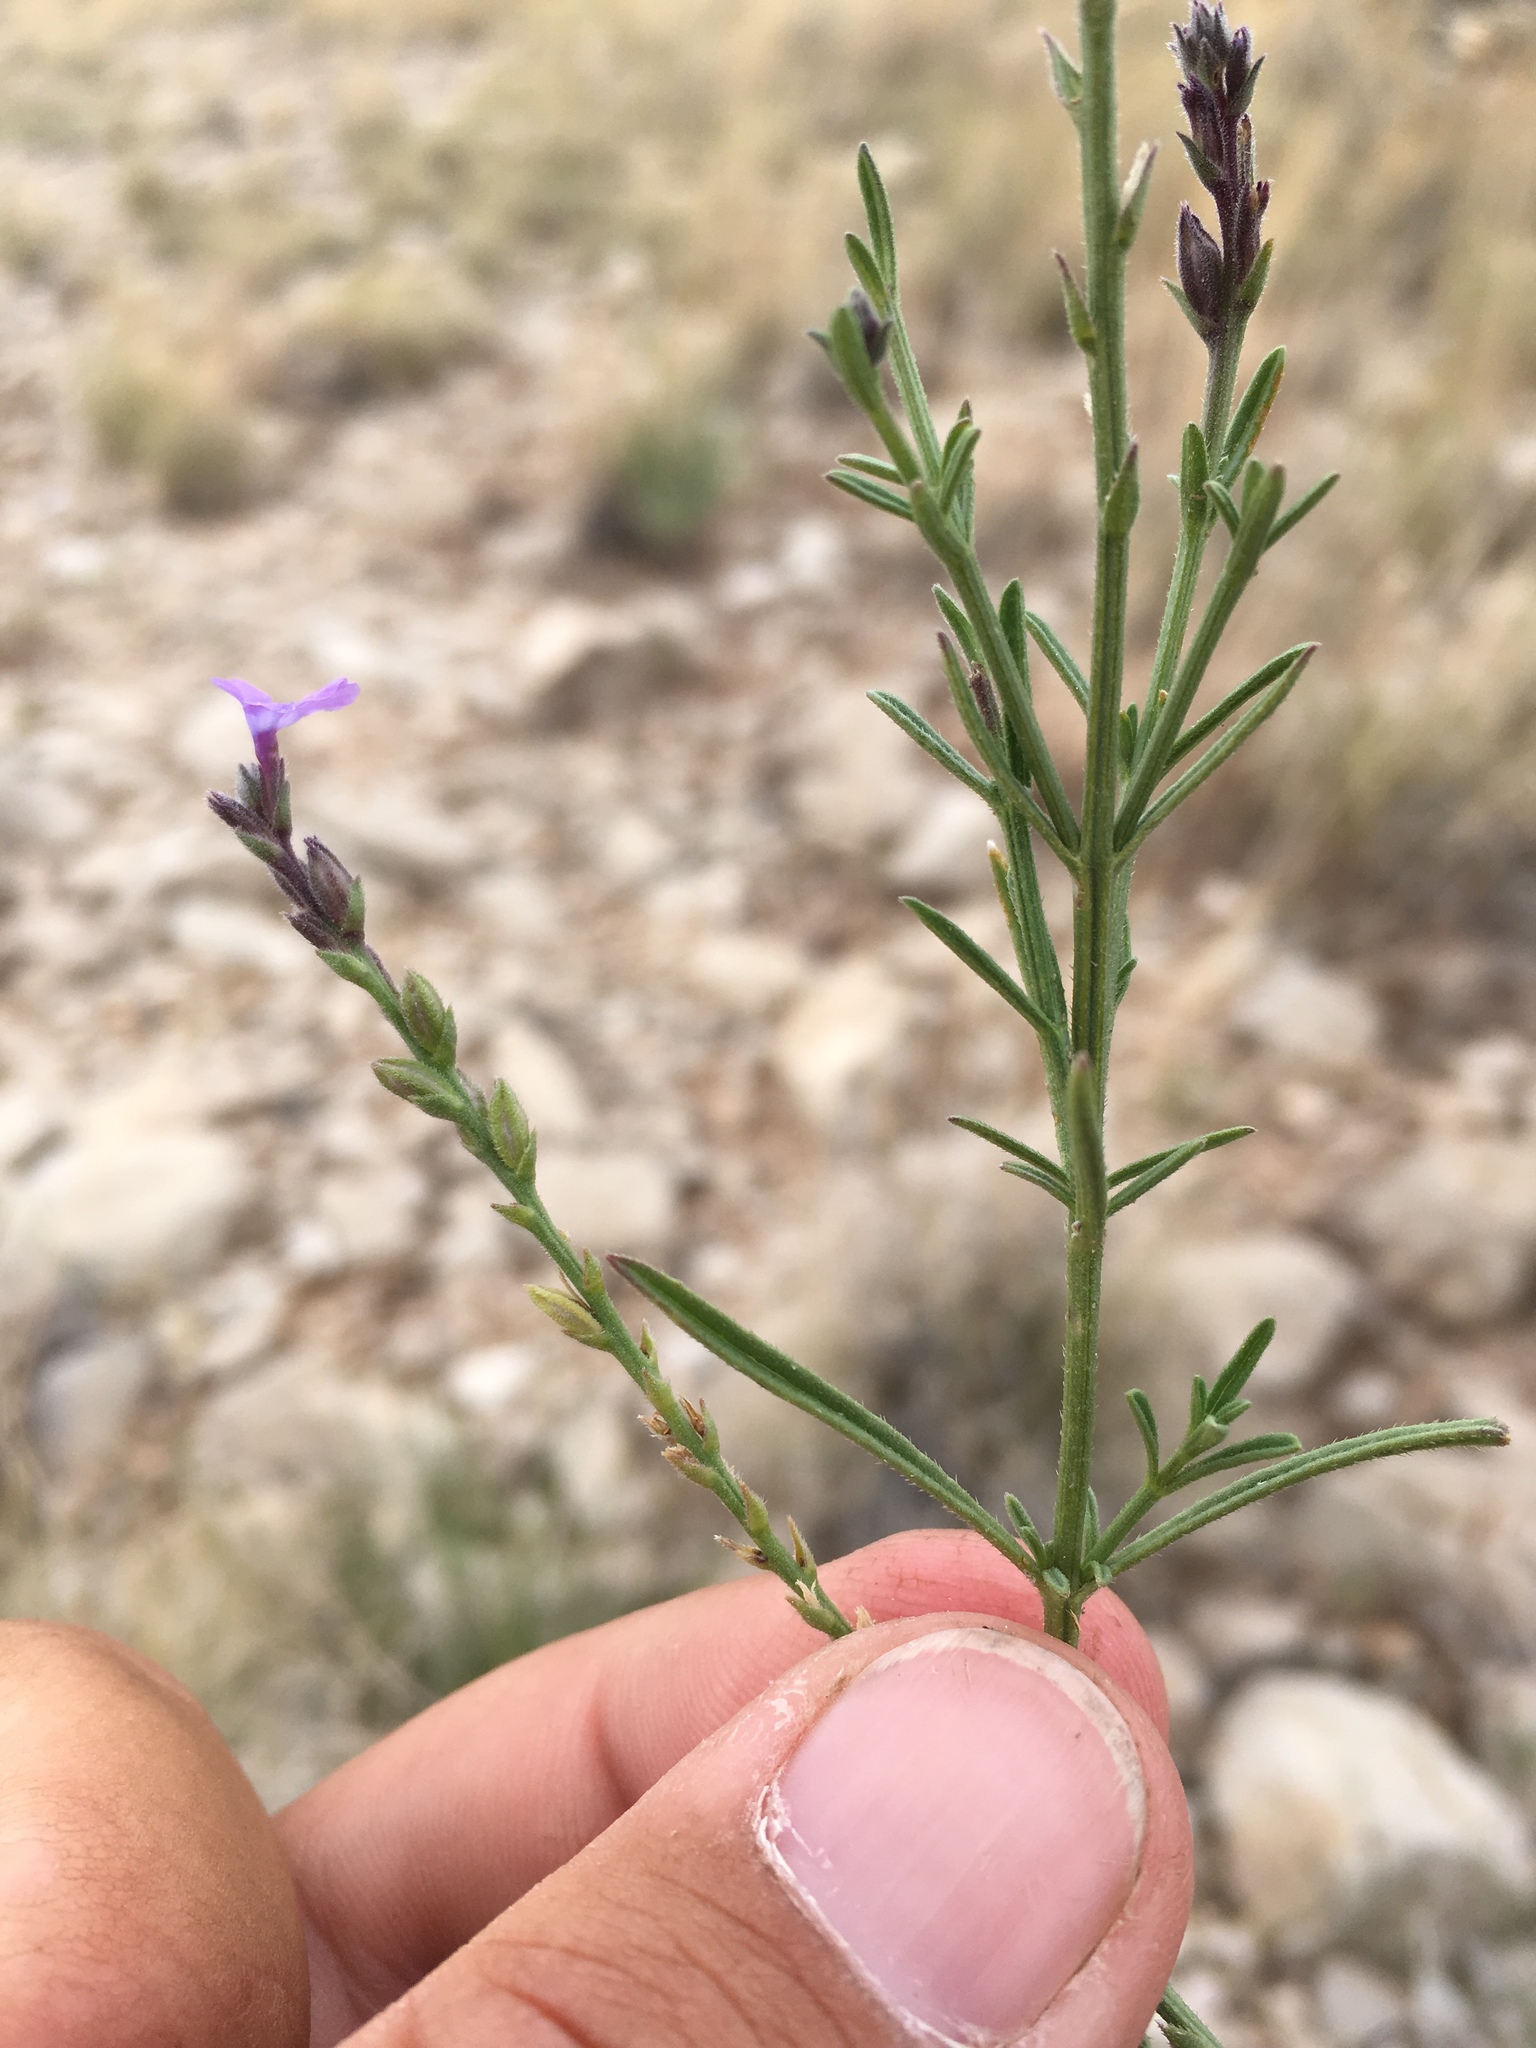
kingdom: Plantae
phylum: Tracheophyta
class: Magnoliopsida
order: Lamiales
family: Verbenaceae
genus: Verbena
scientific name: Verbena perennis
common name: Pin-leaf vervain
